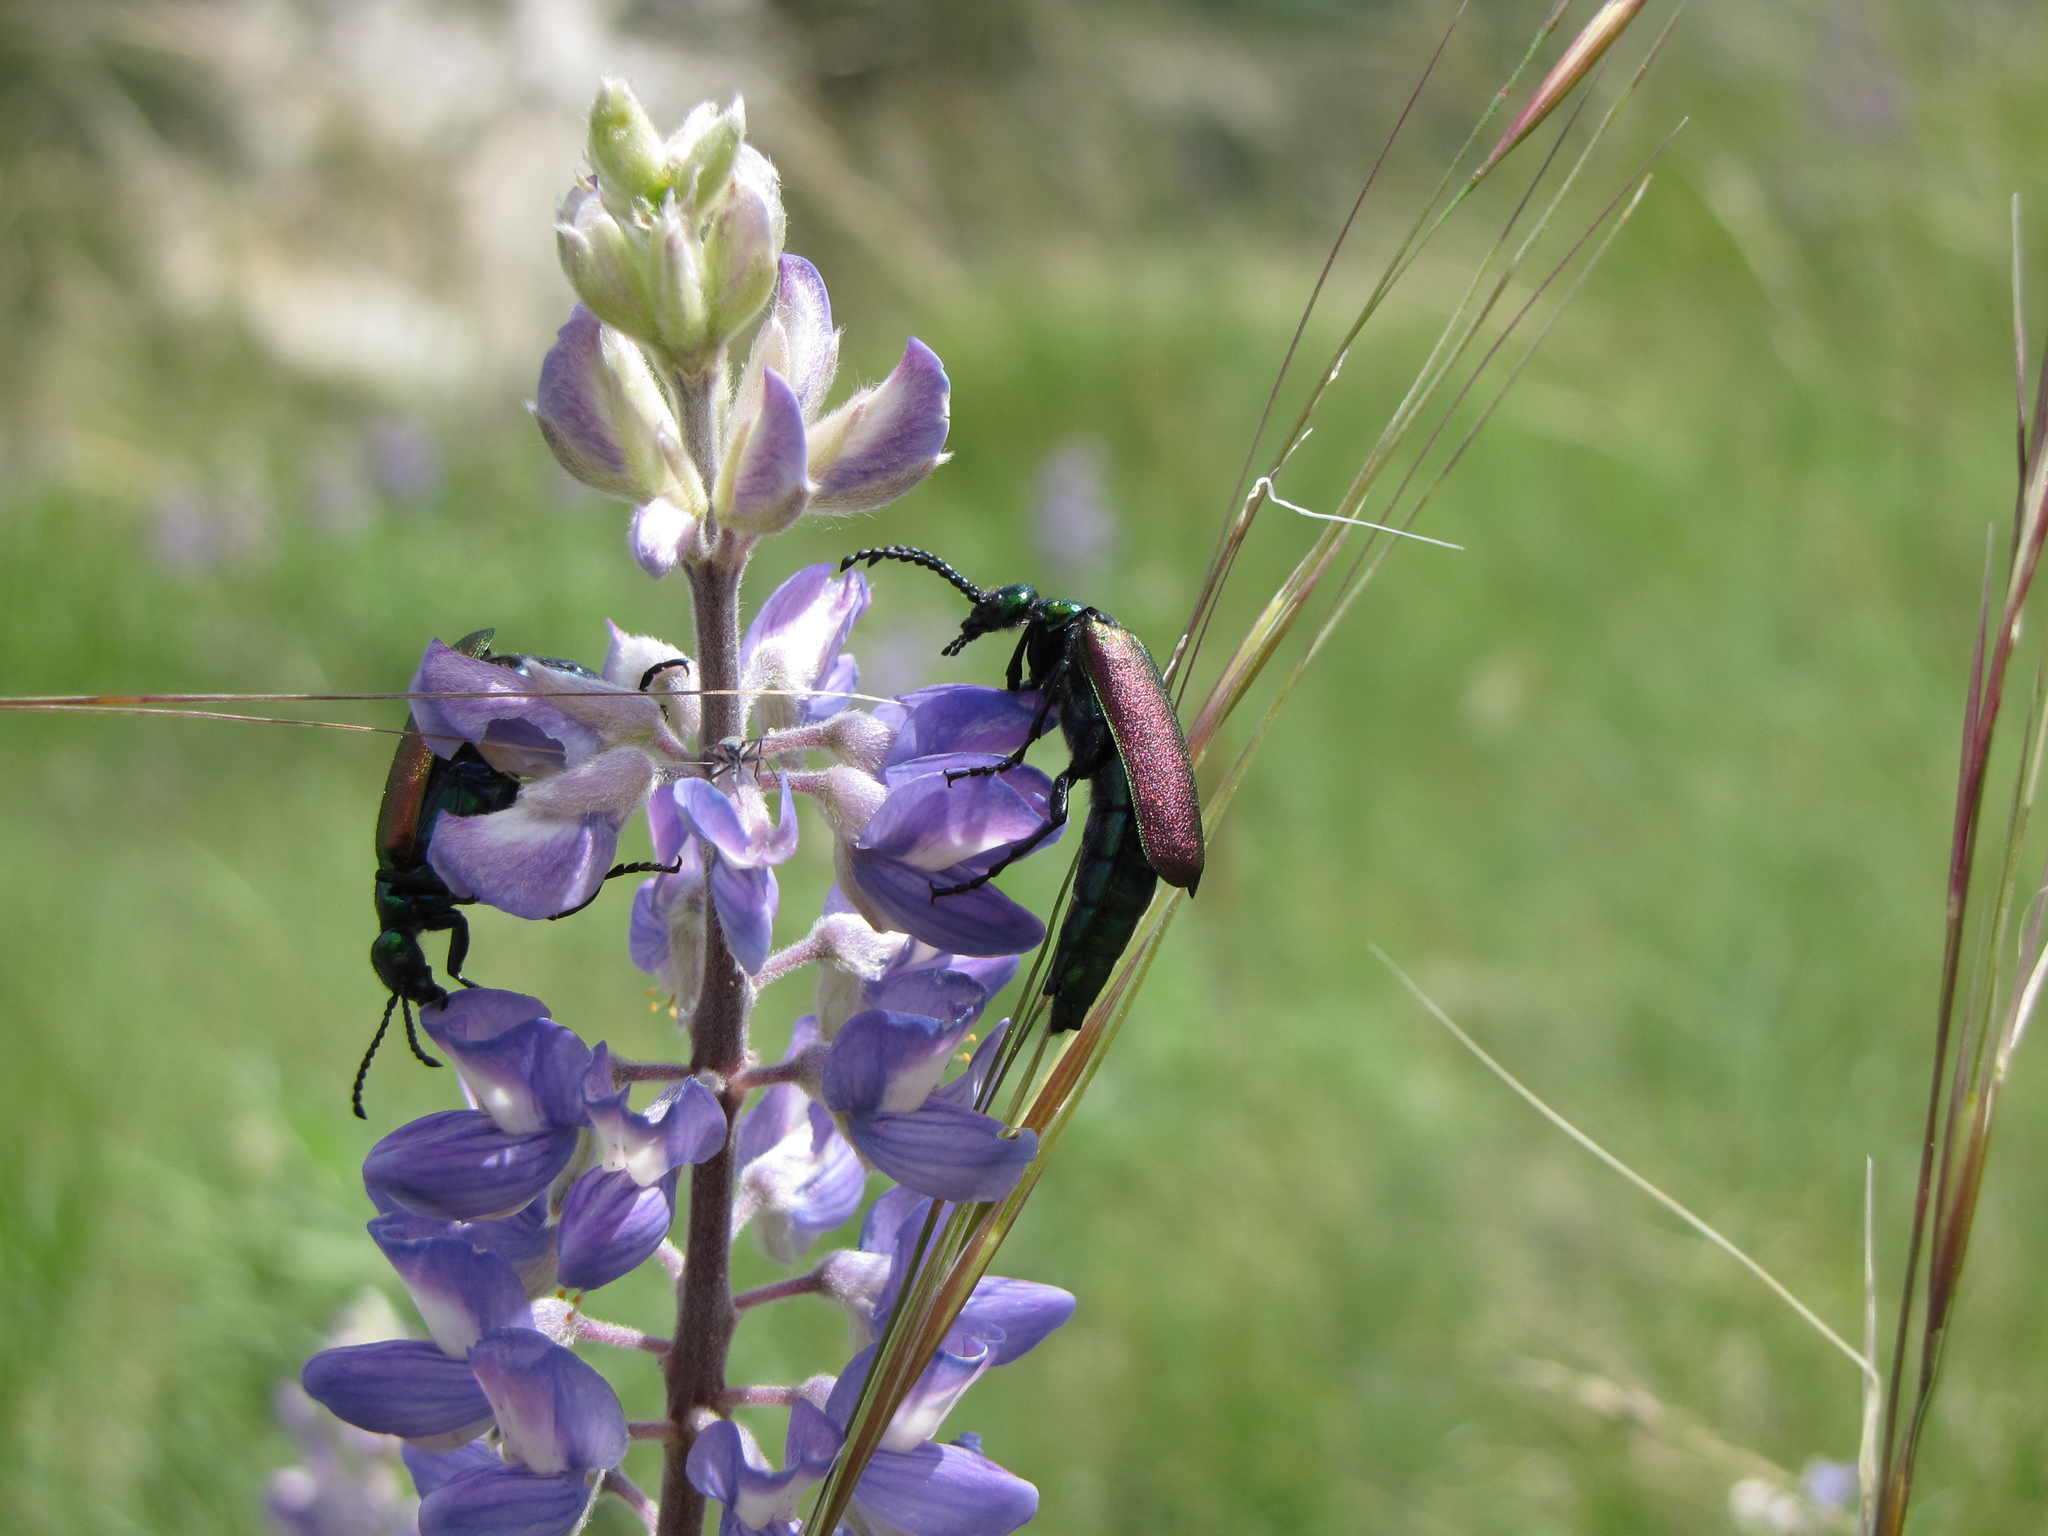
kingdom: Animalia
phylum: Arthropoda
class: Insecta
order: Coleoptera
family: Meloidae
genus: Lytta
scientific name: Lytta nuttallii
